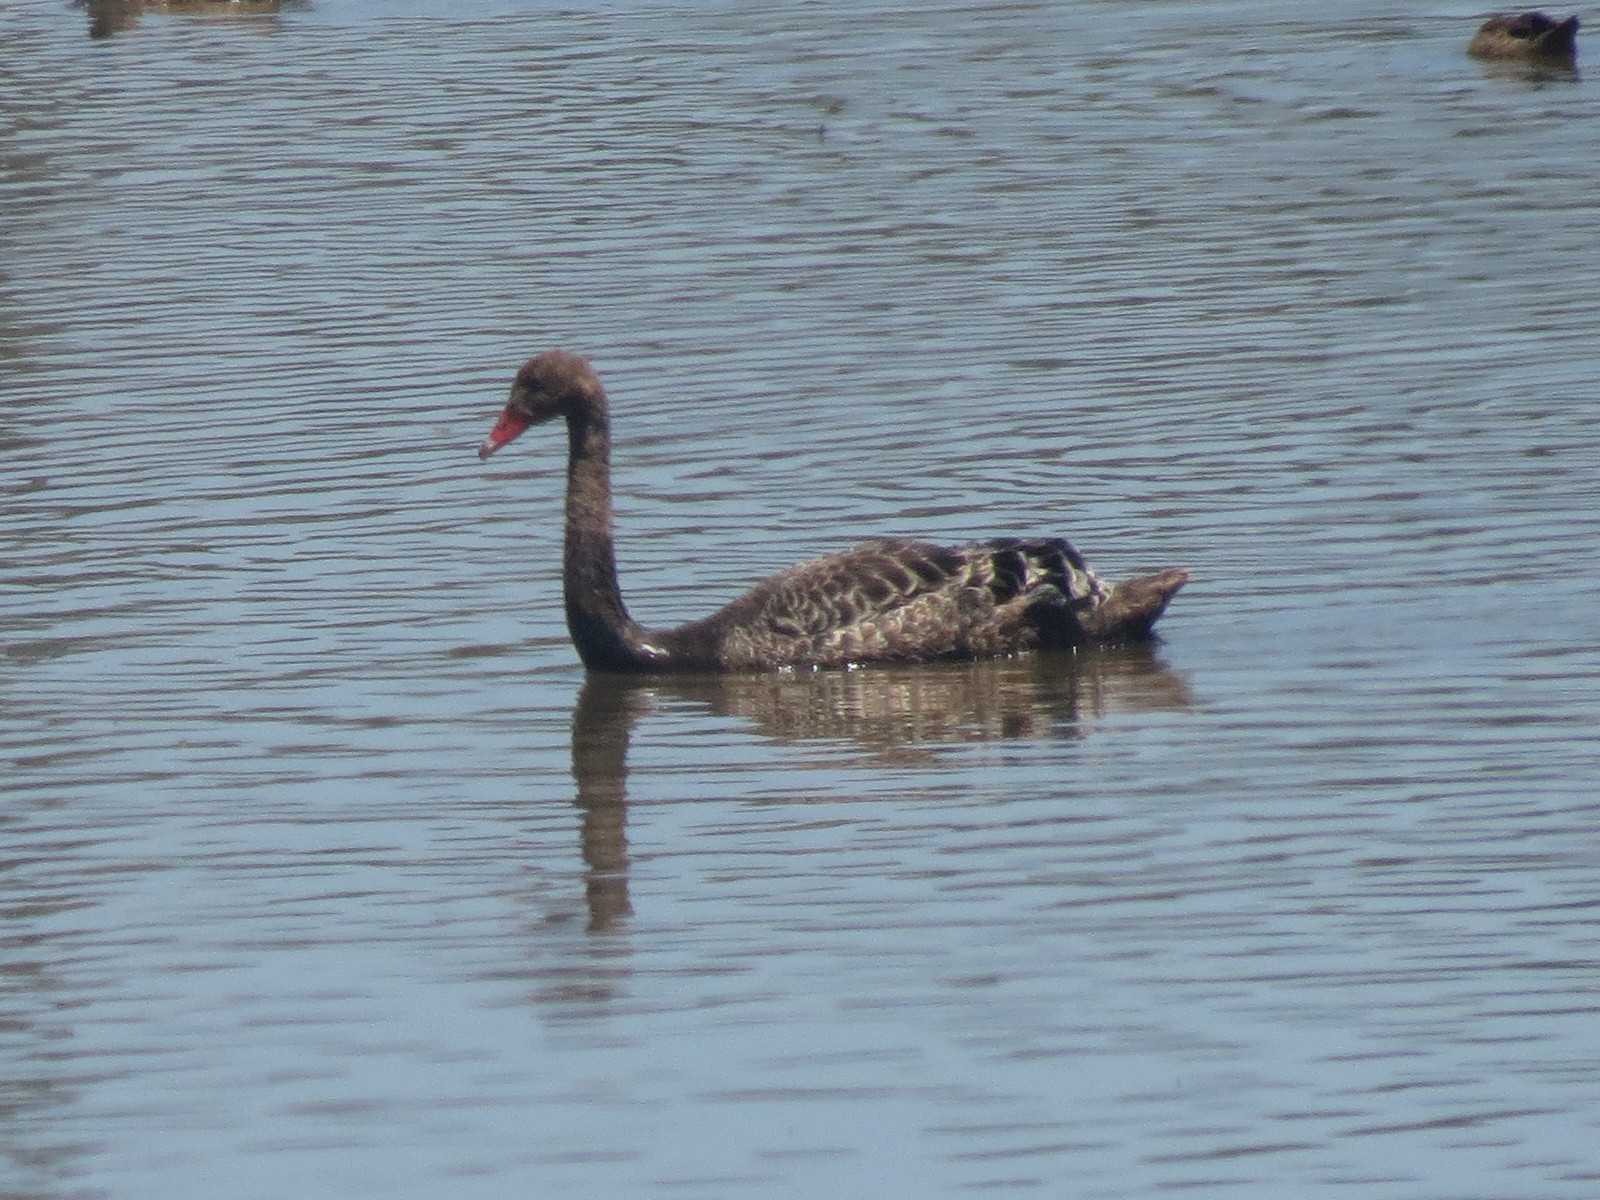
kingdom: Animalia
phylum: Chordata
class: Aves
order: Anseriformes
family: Anatidae
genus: Cygnus
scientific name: Cygnus atratus
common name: Black swan
